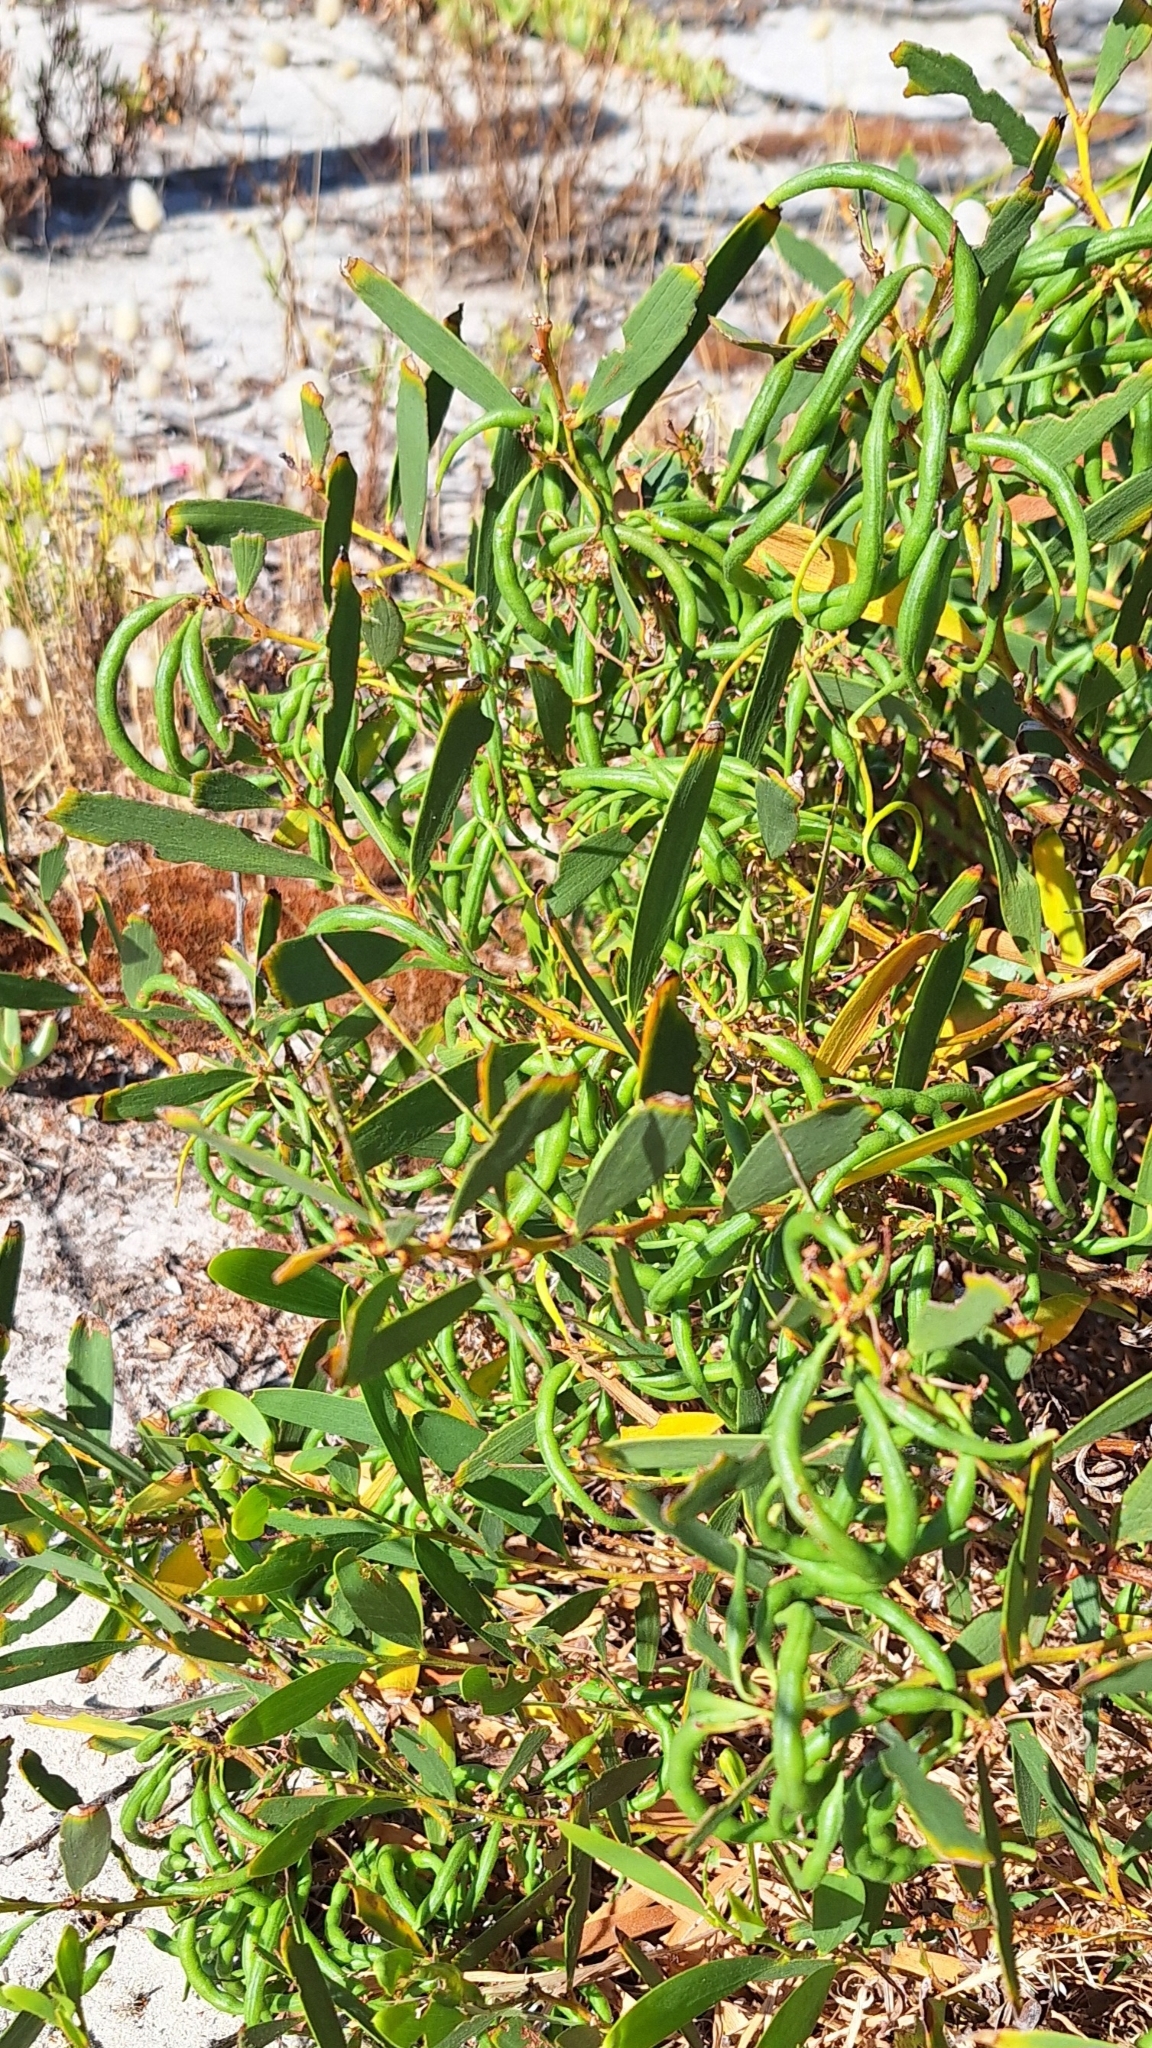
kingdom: Plantae
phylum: Tracheophyta
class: Magnoliopsida
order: Fabales
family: Fabaceae
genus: Acacia
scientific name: Acacia longifolia
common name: Sydney golden wattle
